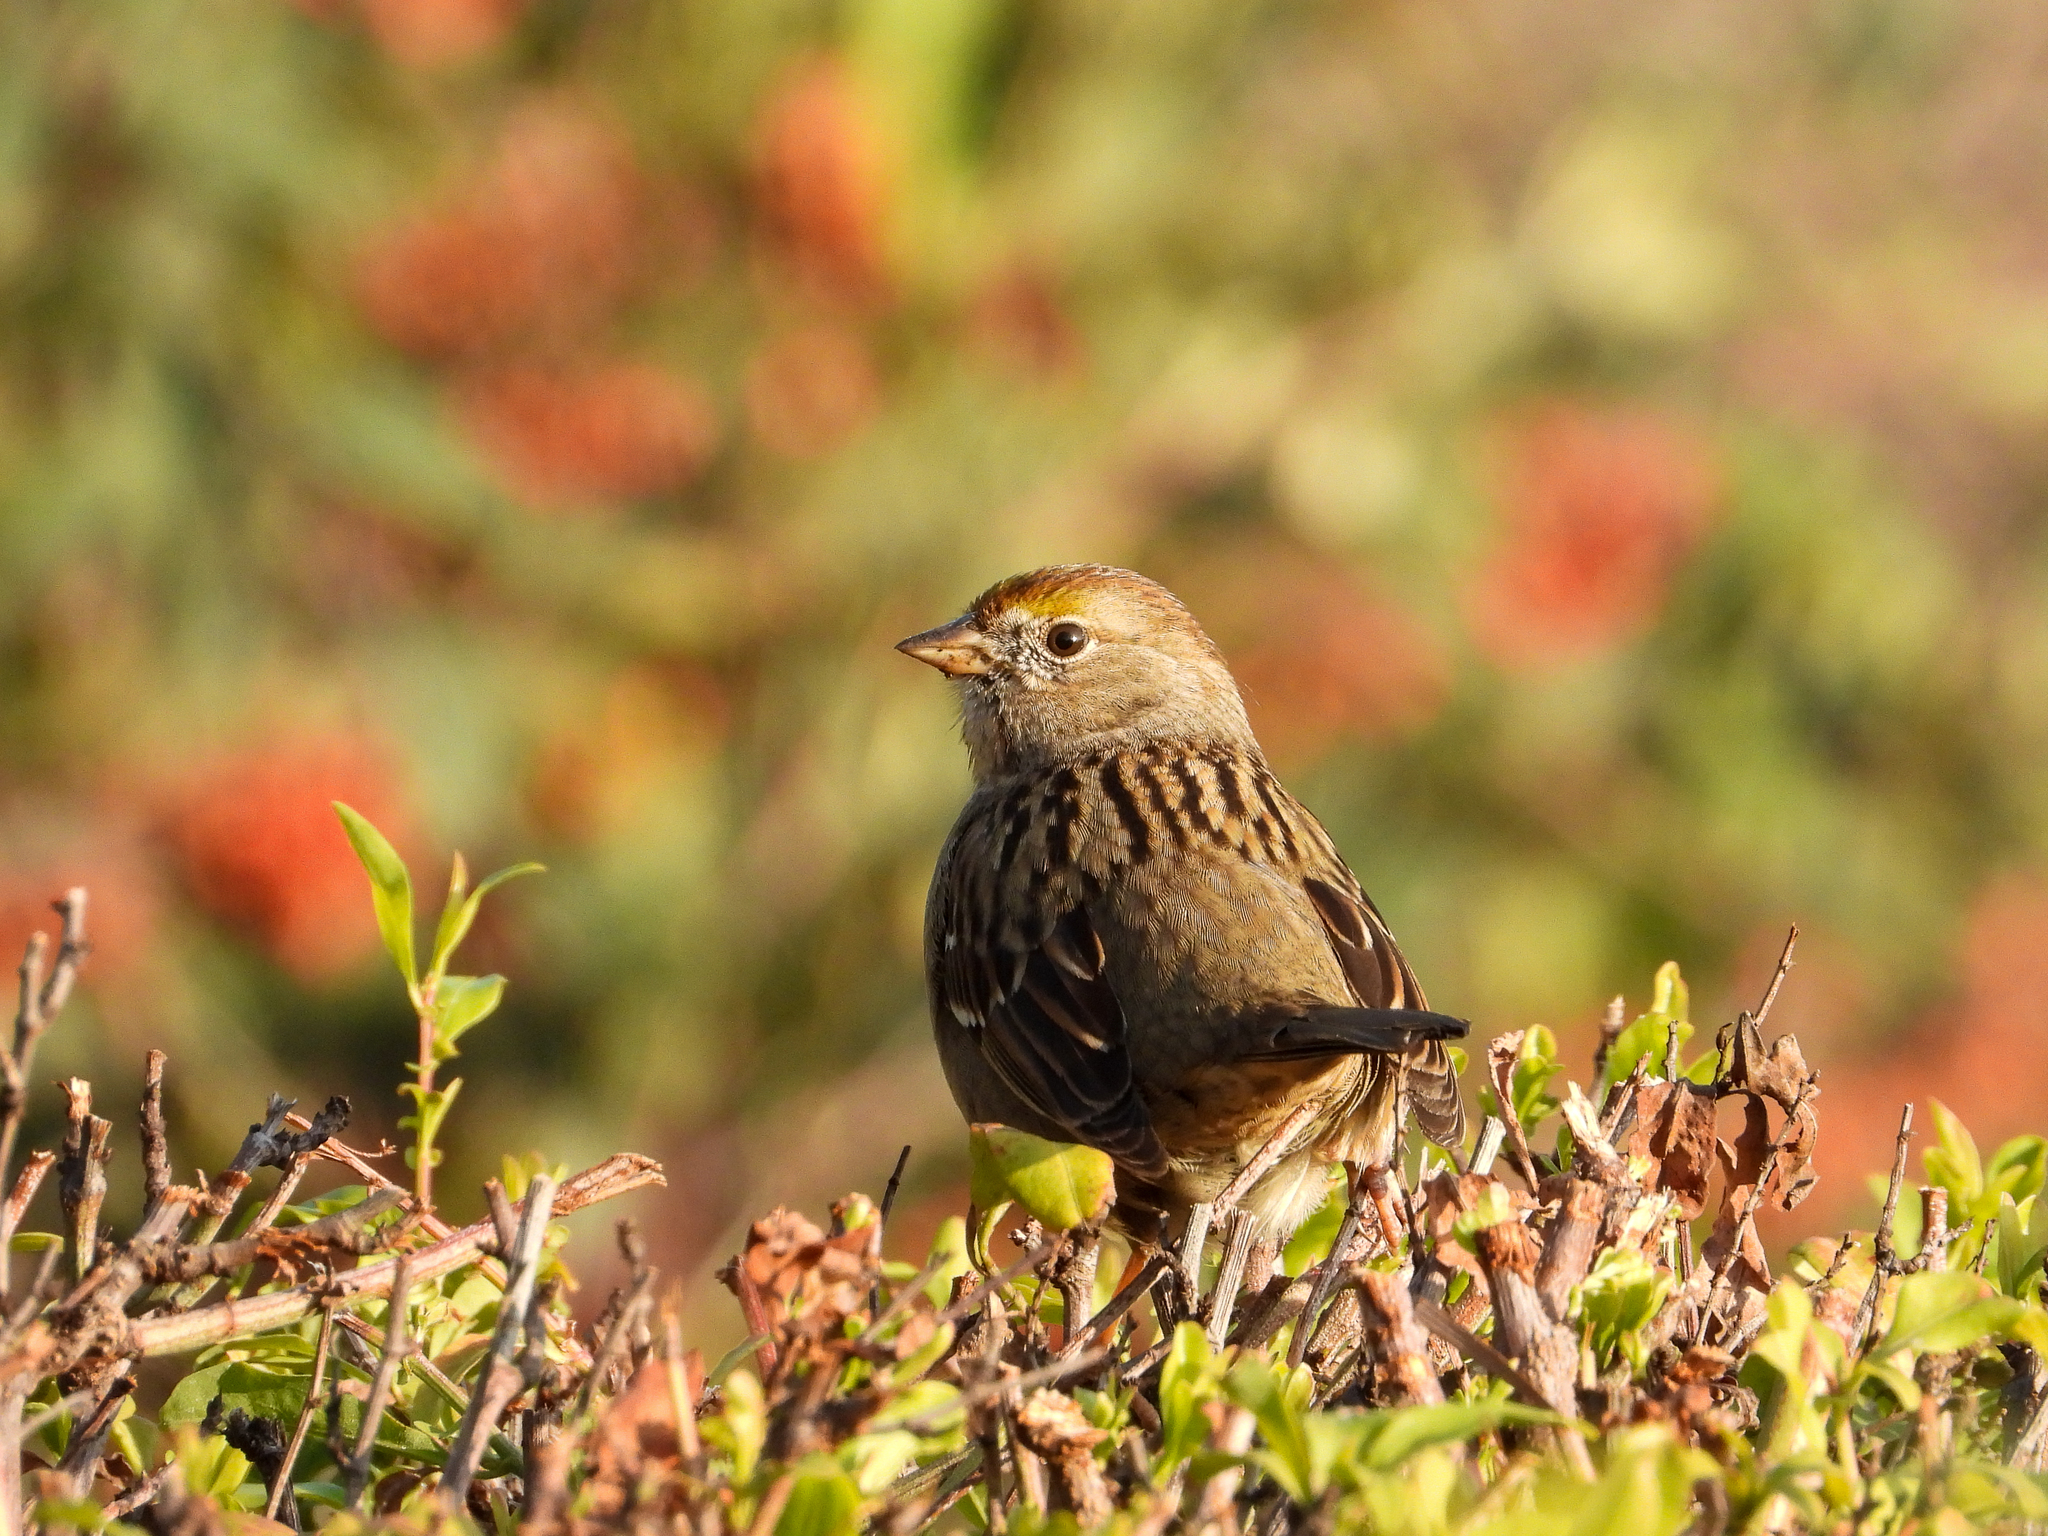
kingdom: Animalia
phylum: Chordata
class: Aves
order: Passeriformes
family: Passerellidae
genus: Zonotrichia
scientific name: Zonotrichia atricapilla
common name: Golden-crowned sparrow
